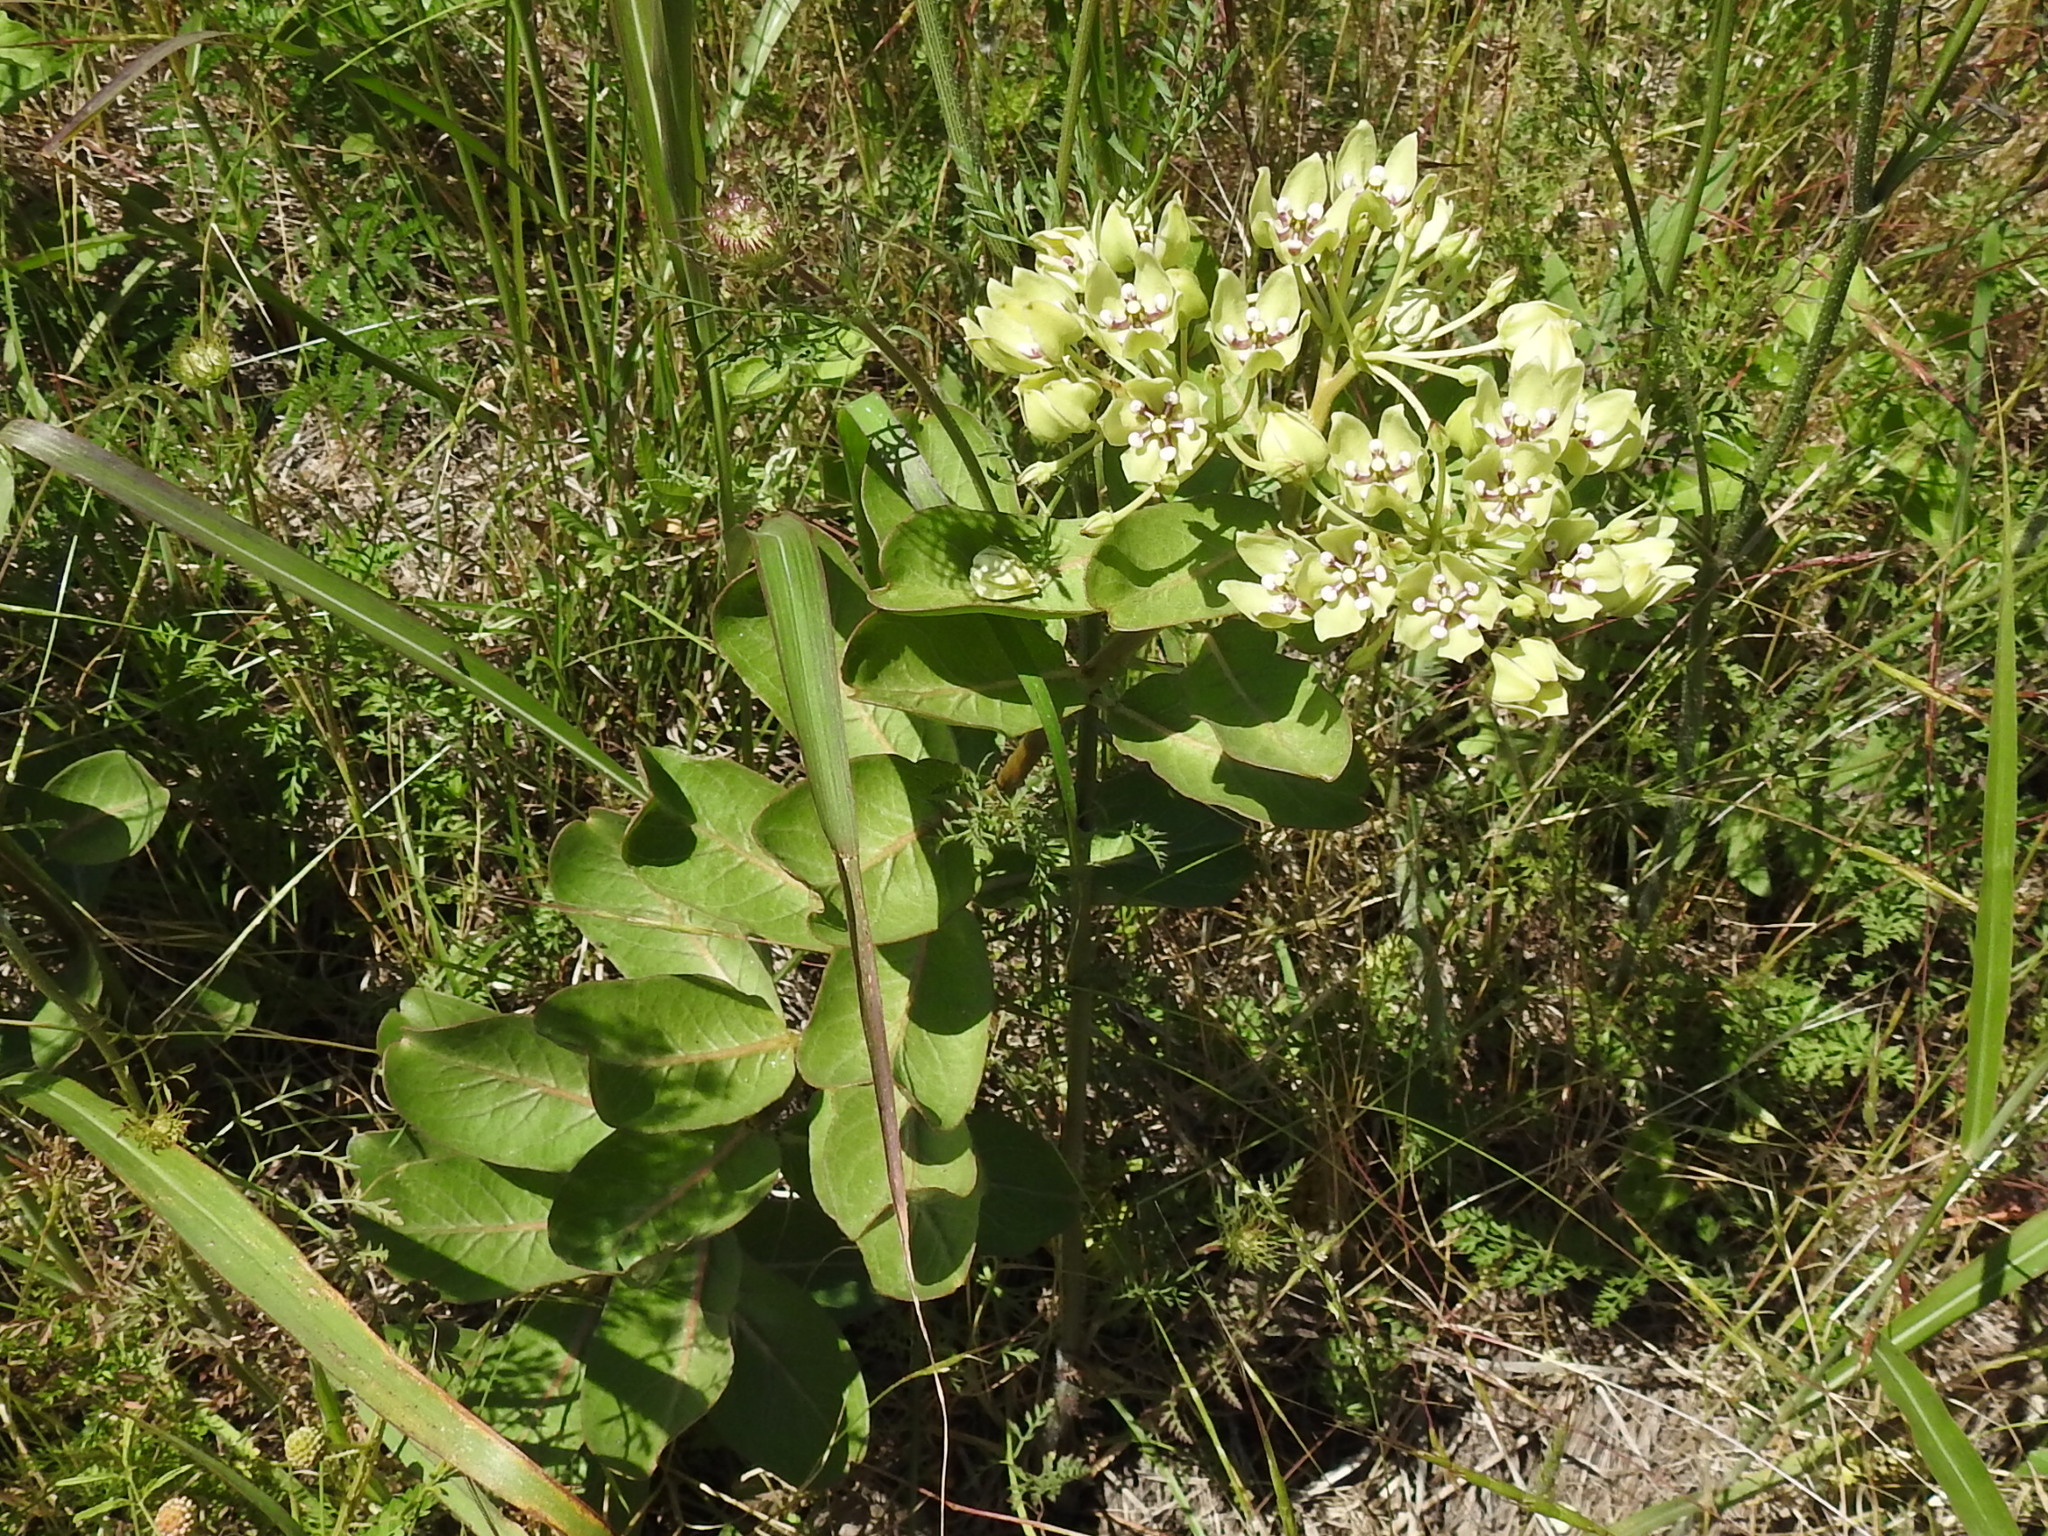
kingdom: Plantae
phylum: Tracheophyta
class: Magnoliopsida
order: Gentianales
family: Apocynaceae
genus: Asclepias
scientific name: Asclepias viridis
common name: Antelope-horns
